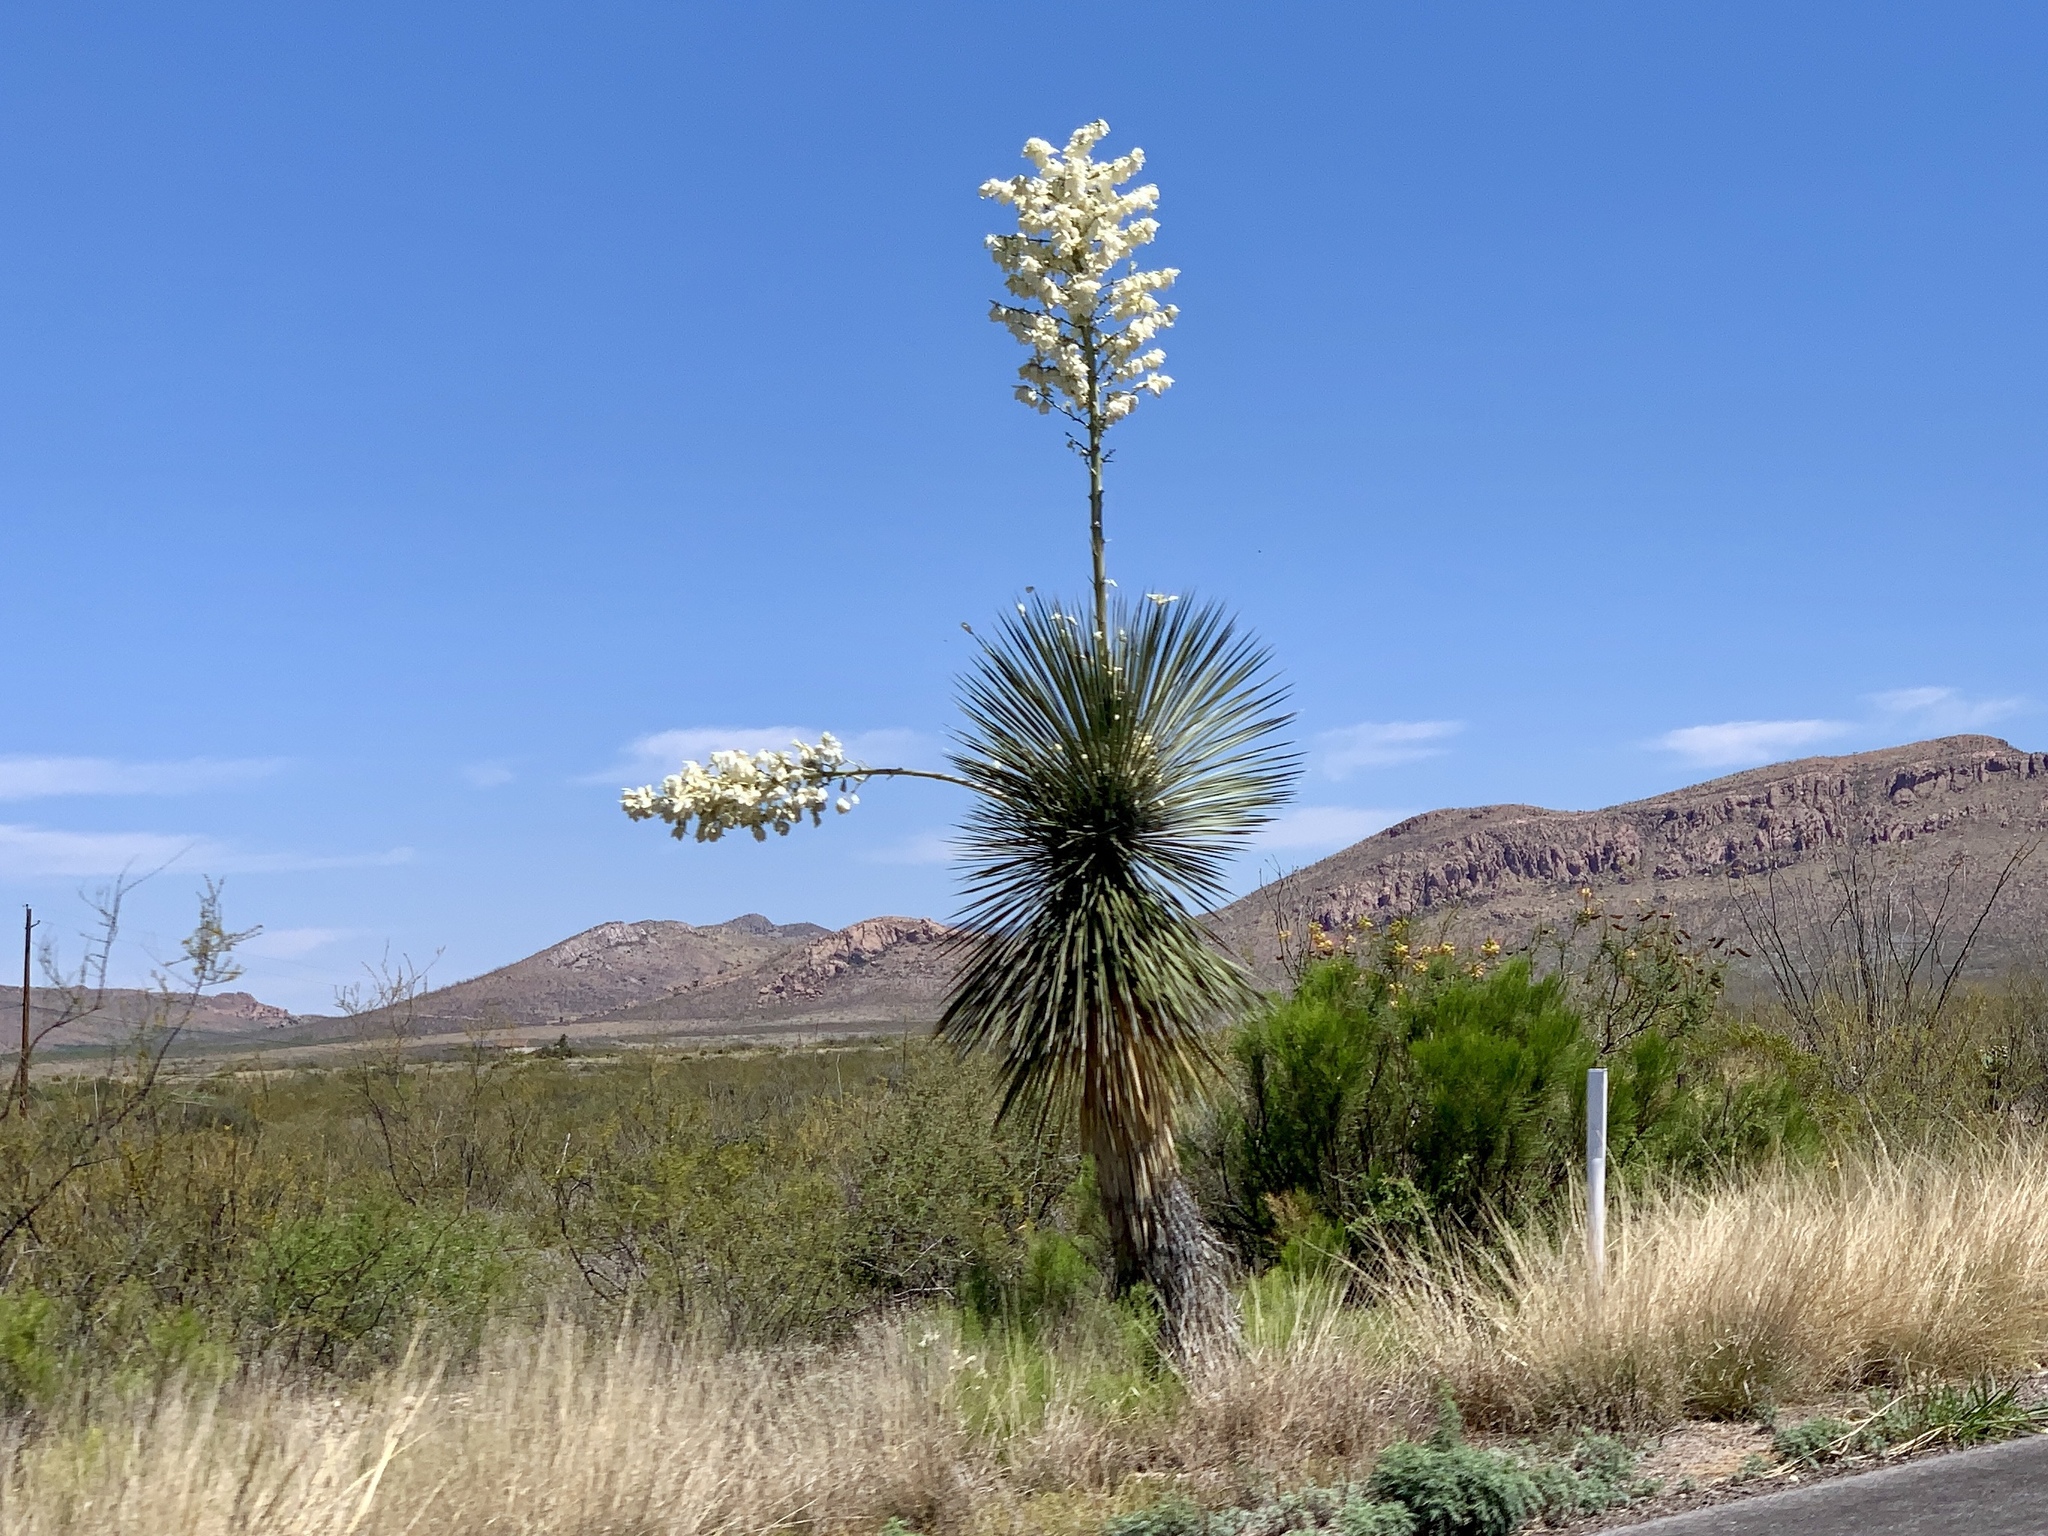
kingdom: Plantae
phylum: Tracheophyta
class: Liliopsida
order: Asparagales
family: Asparagaceae
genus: Yucca
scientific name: Yucca elata
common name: Palmella
